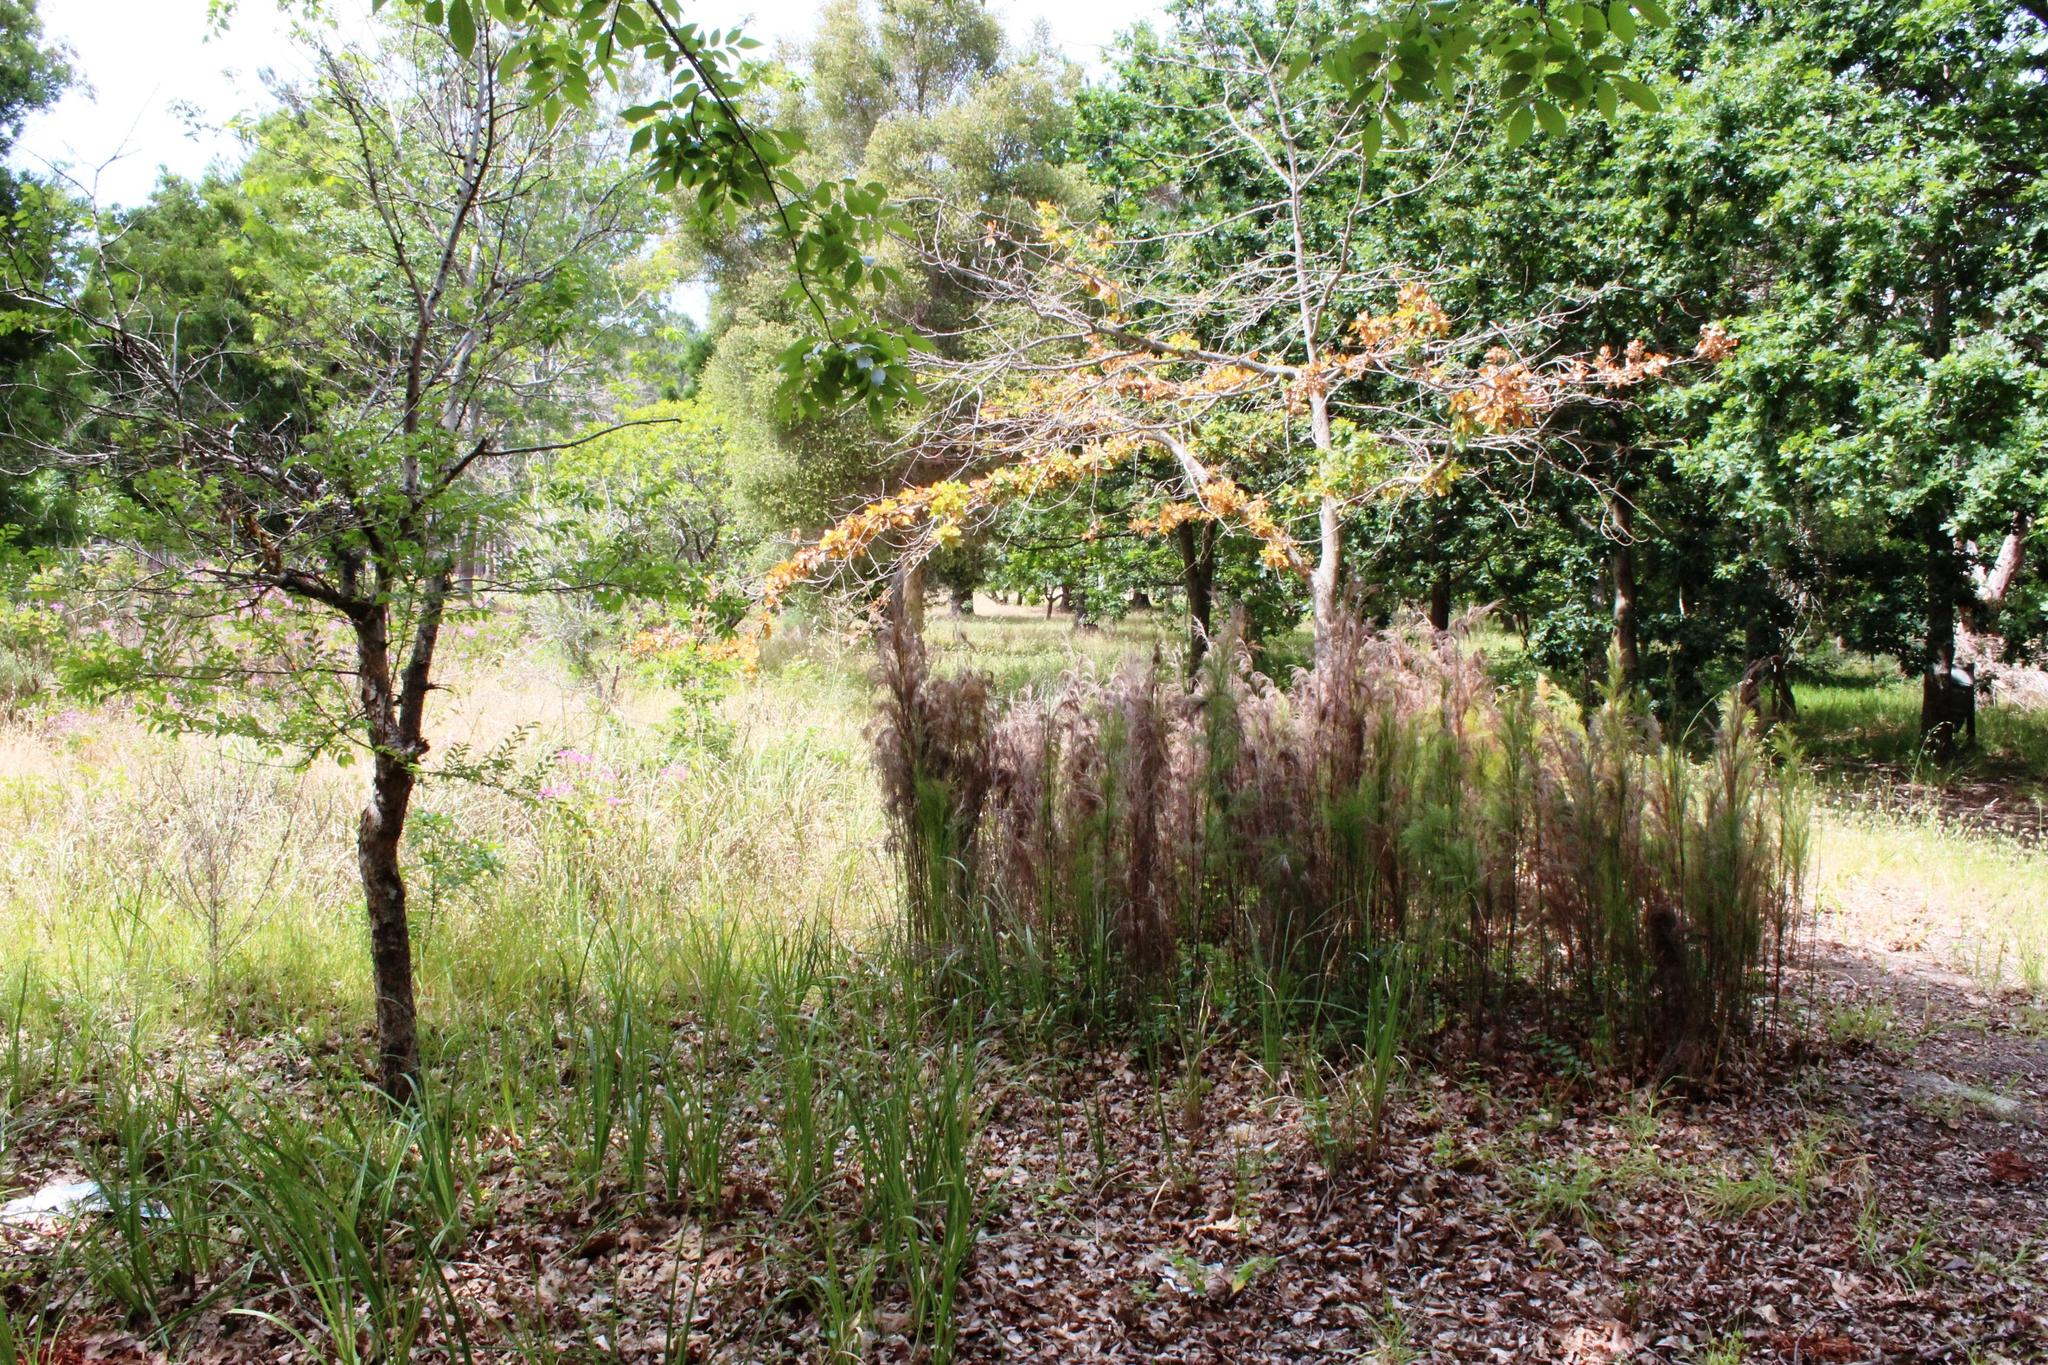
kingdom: Plantae
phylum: Tracheophyta
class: Liliopsida
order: Poales
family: Restionaceae
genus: Restio
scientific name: Restio paniculatus
